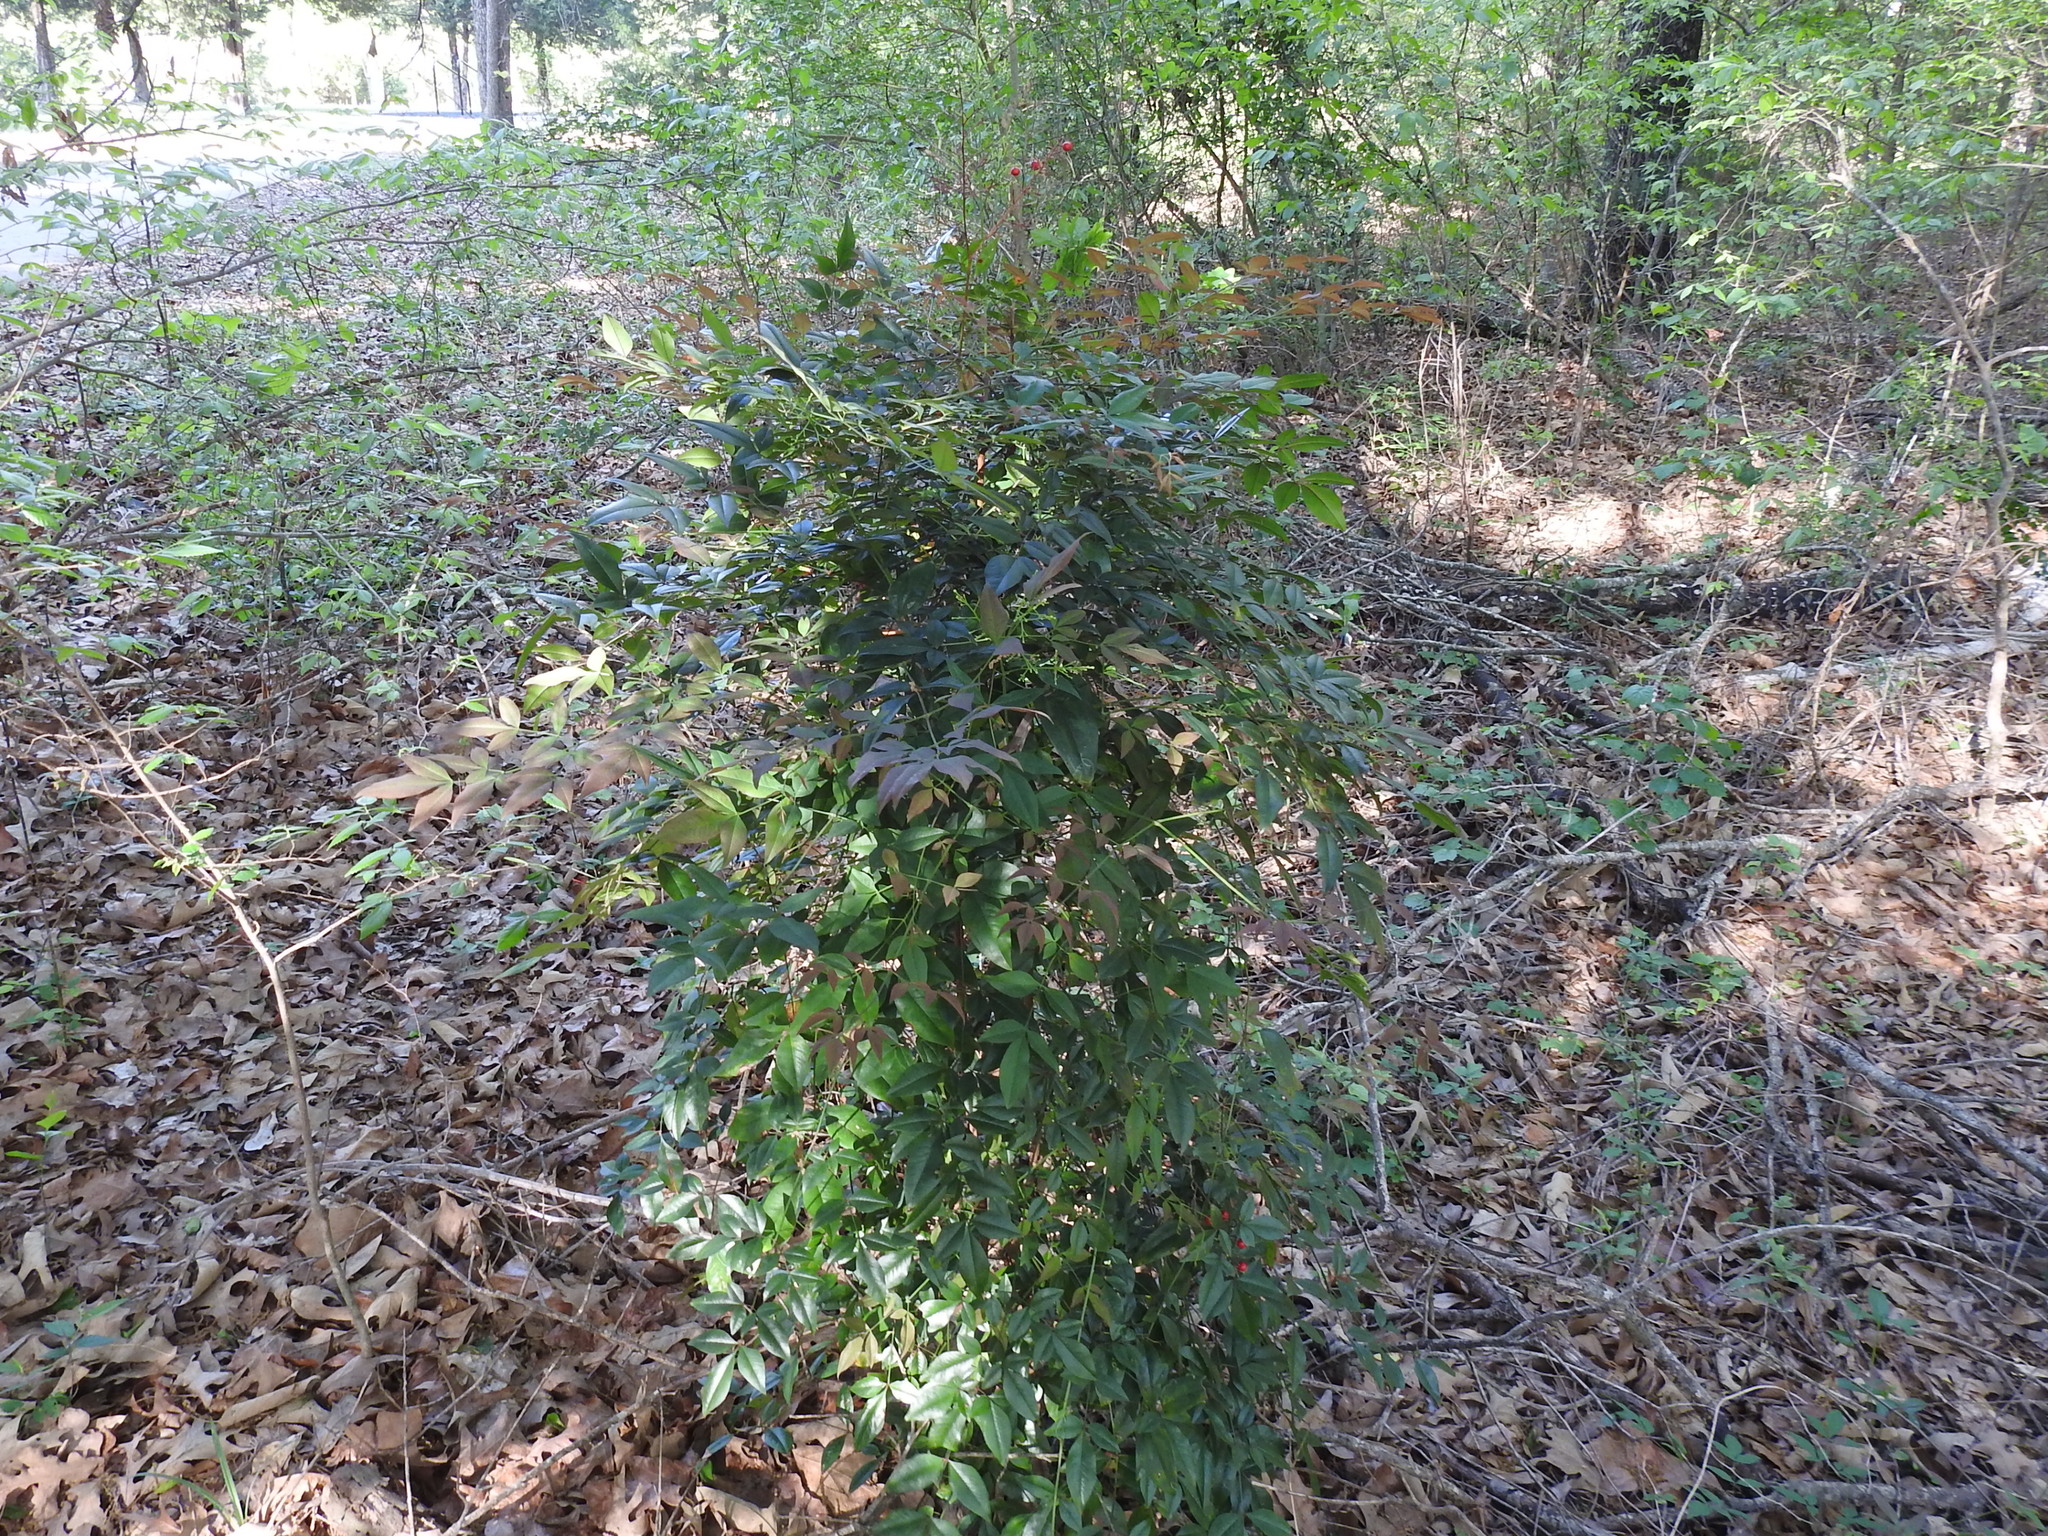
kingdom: Plantae
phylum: Tracheophyta
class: Magnoliopsida
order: Ranunculales
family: Berberidaceae
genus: Nandina
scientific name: Nandina domestica
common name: Sacred bamboo
